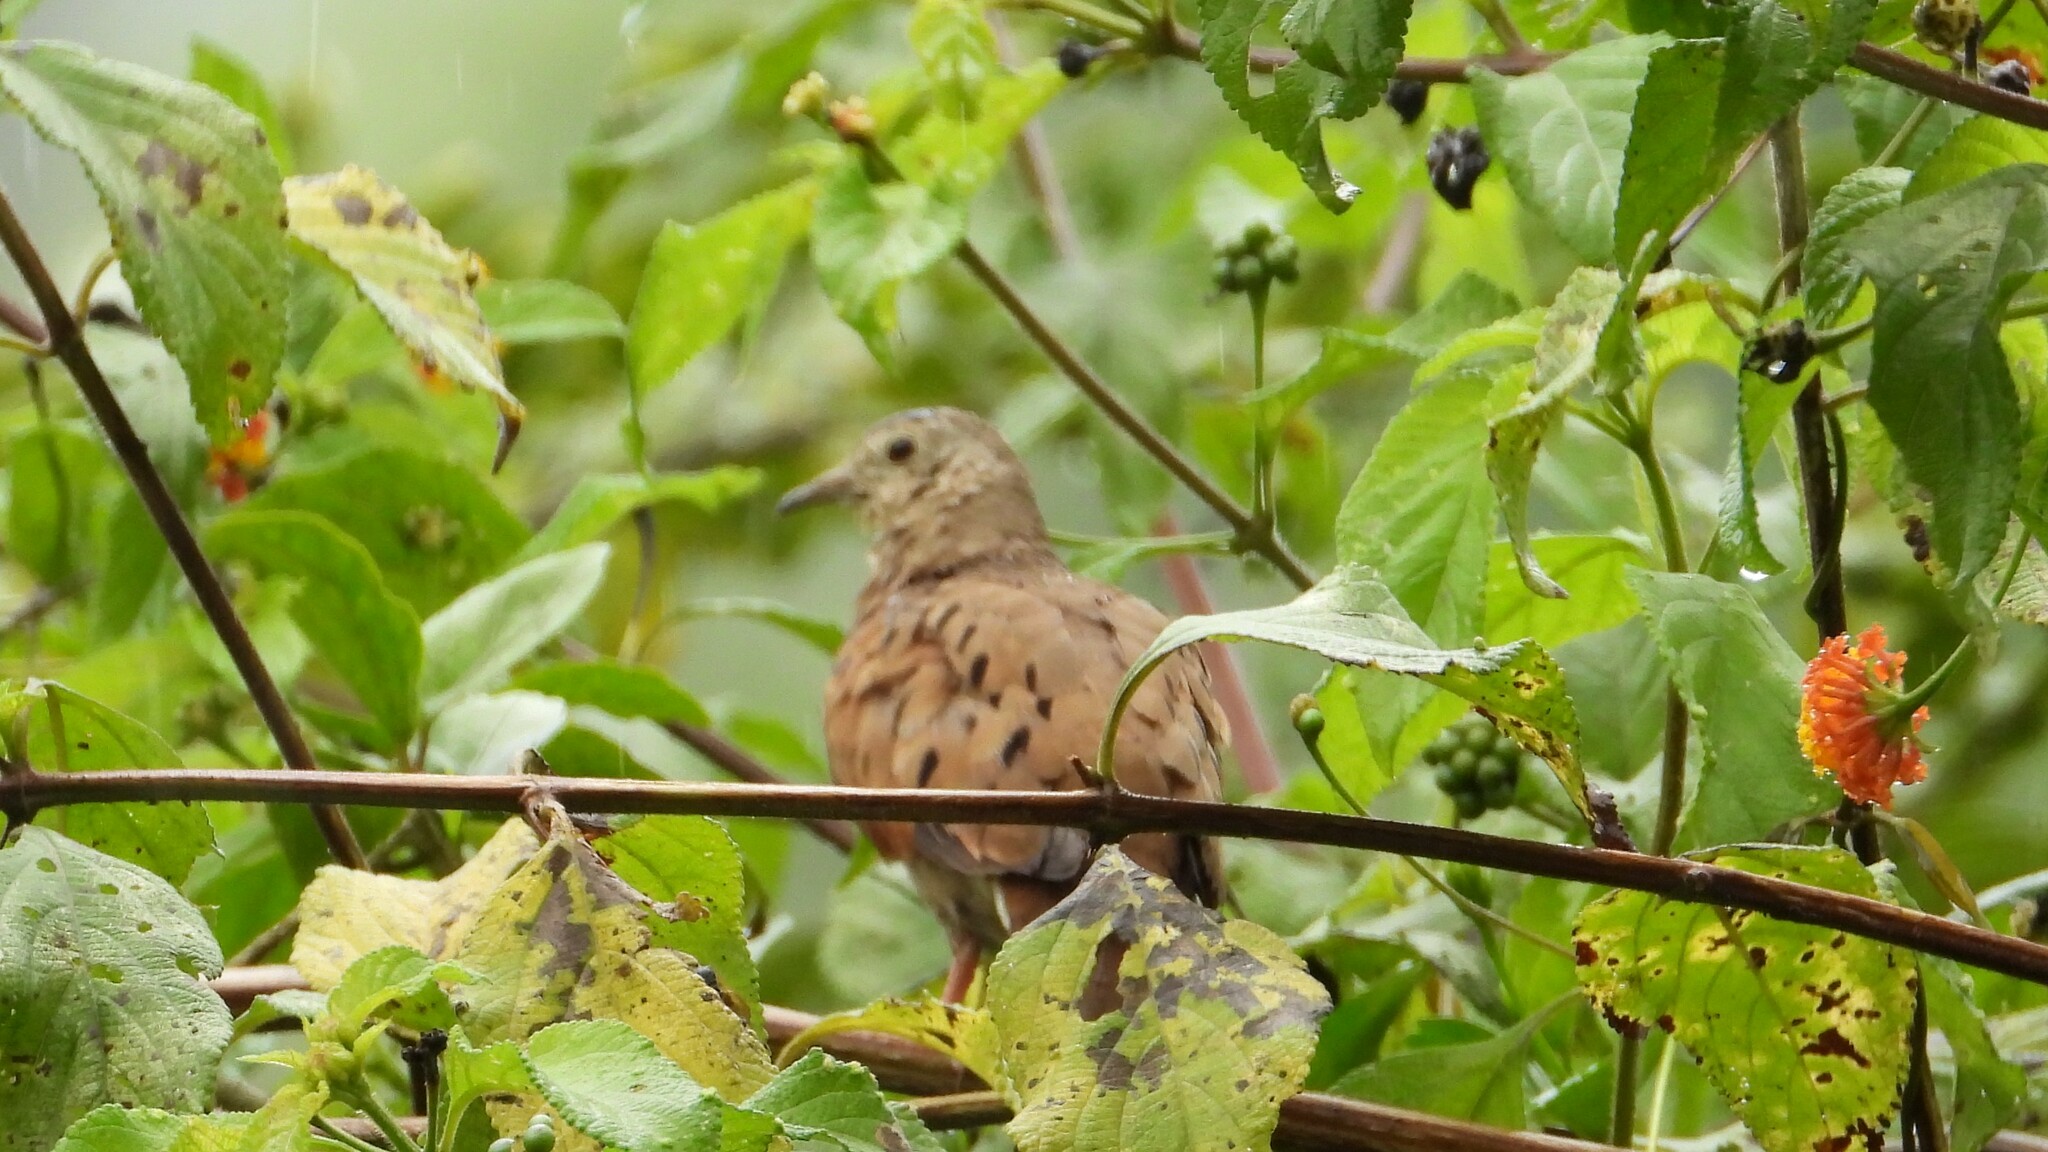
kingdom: Animalia
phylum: Chordata
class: Aves
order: Columbiformes
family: Columbidae
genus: Columbina
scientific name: Columbina talpacoti
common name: Ruddy ground dove
